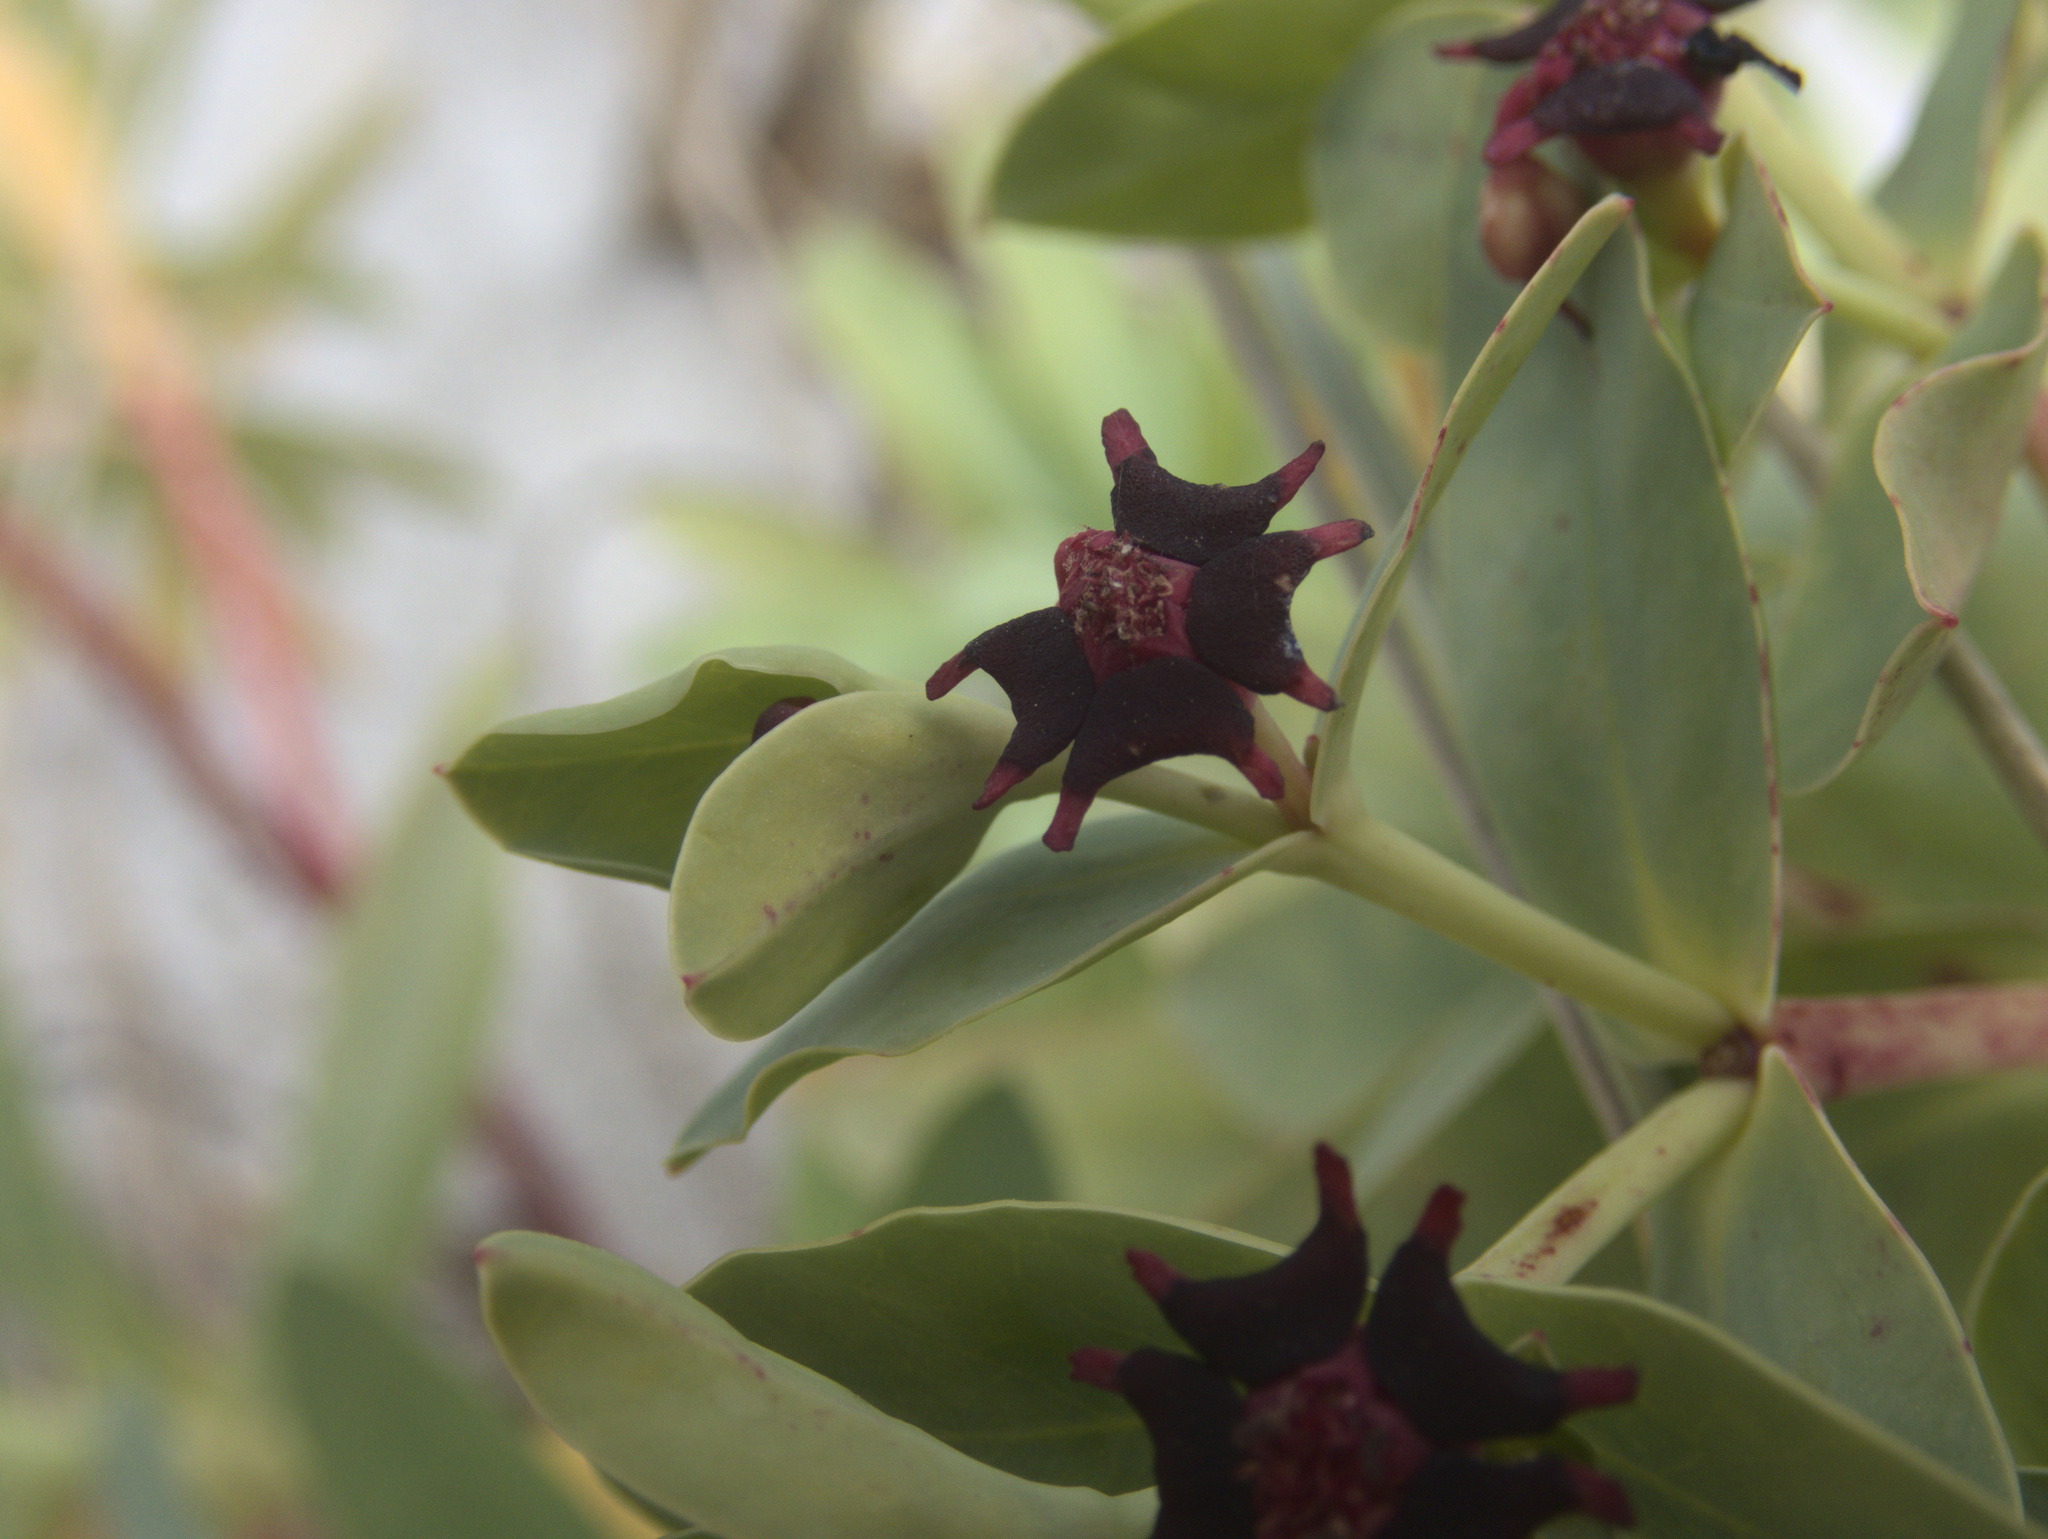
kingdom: Plantae
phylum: Tracheophyta
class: Magnoliopsida
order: Malpighiales
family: Euphorbiaceae
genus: Euphorbia
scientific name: Euphorbia glauca
